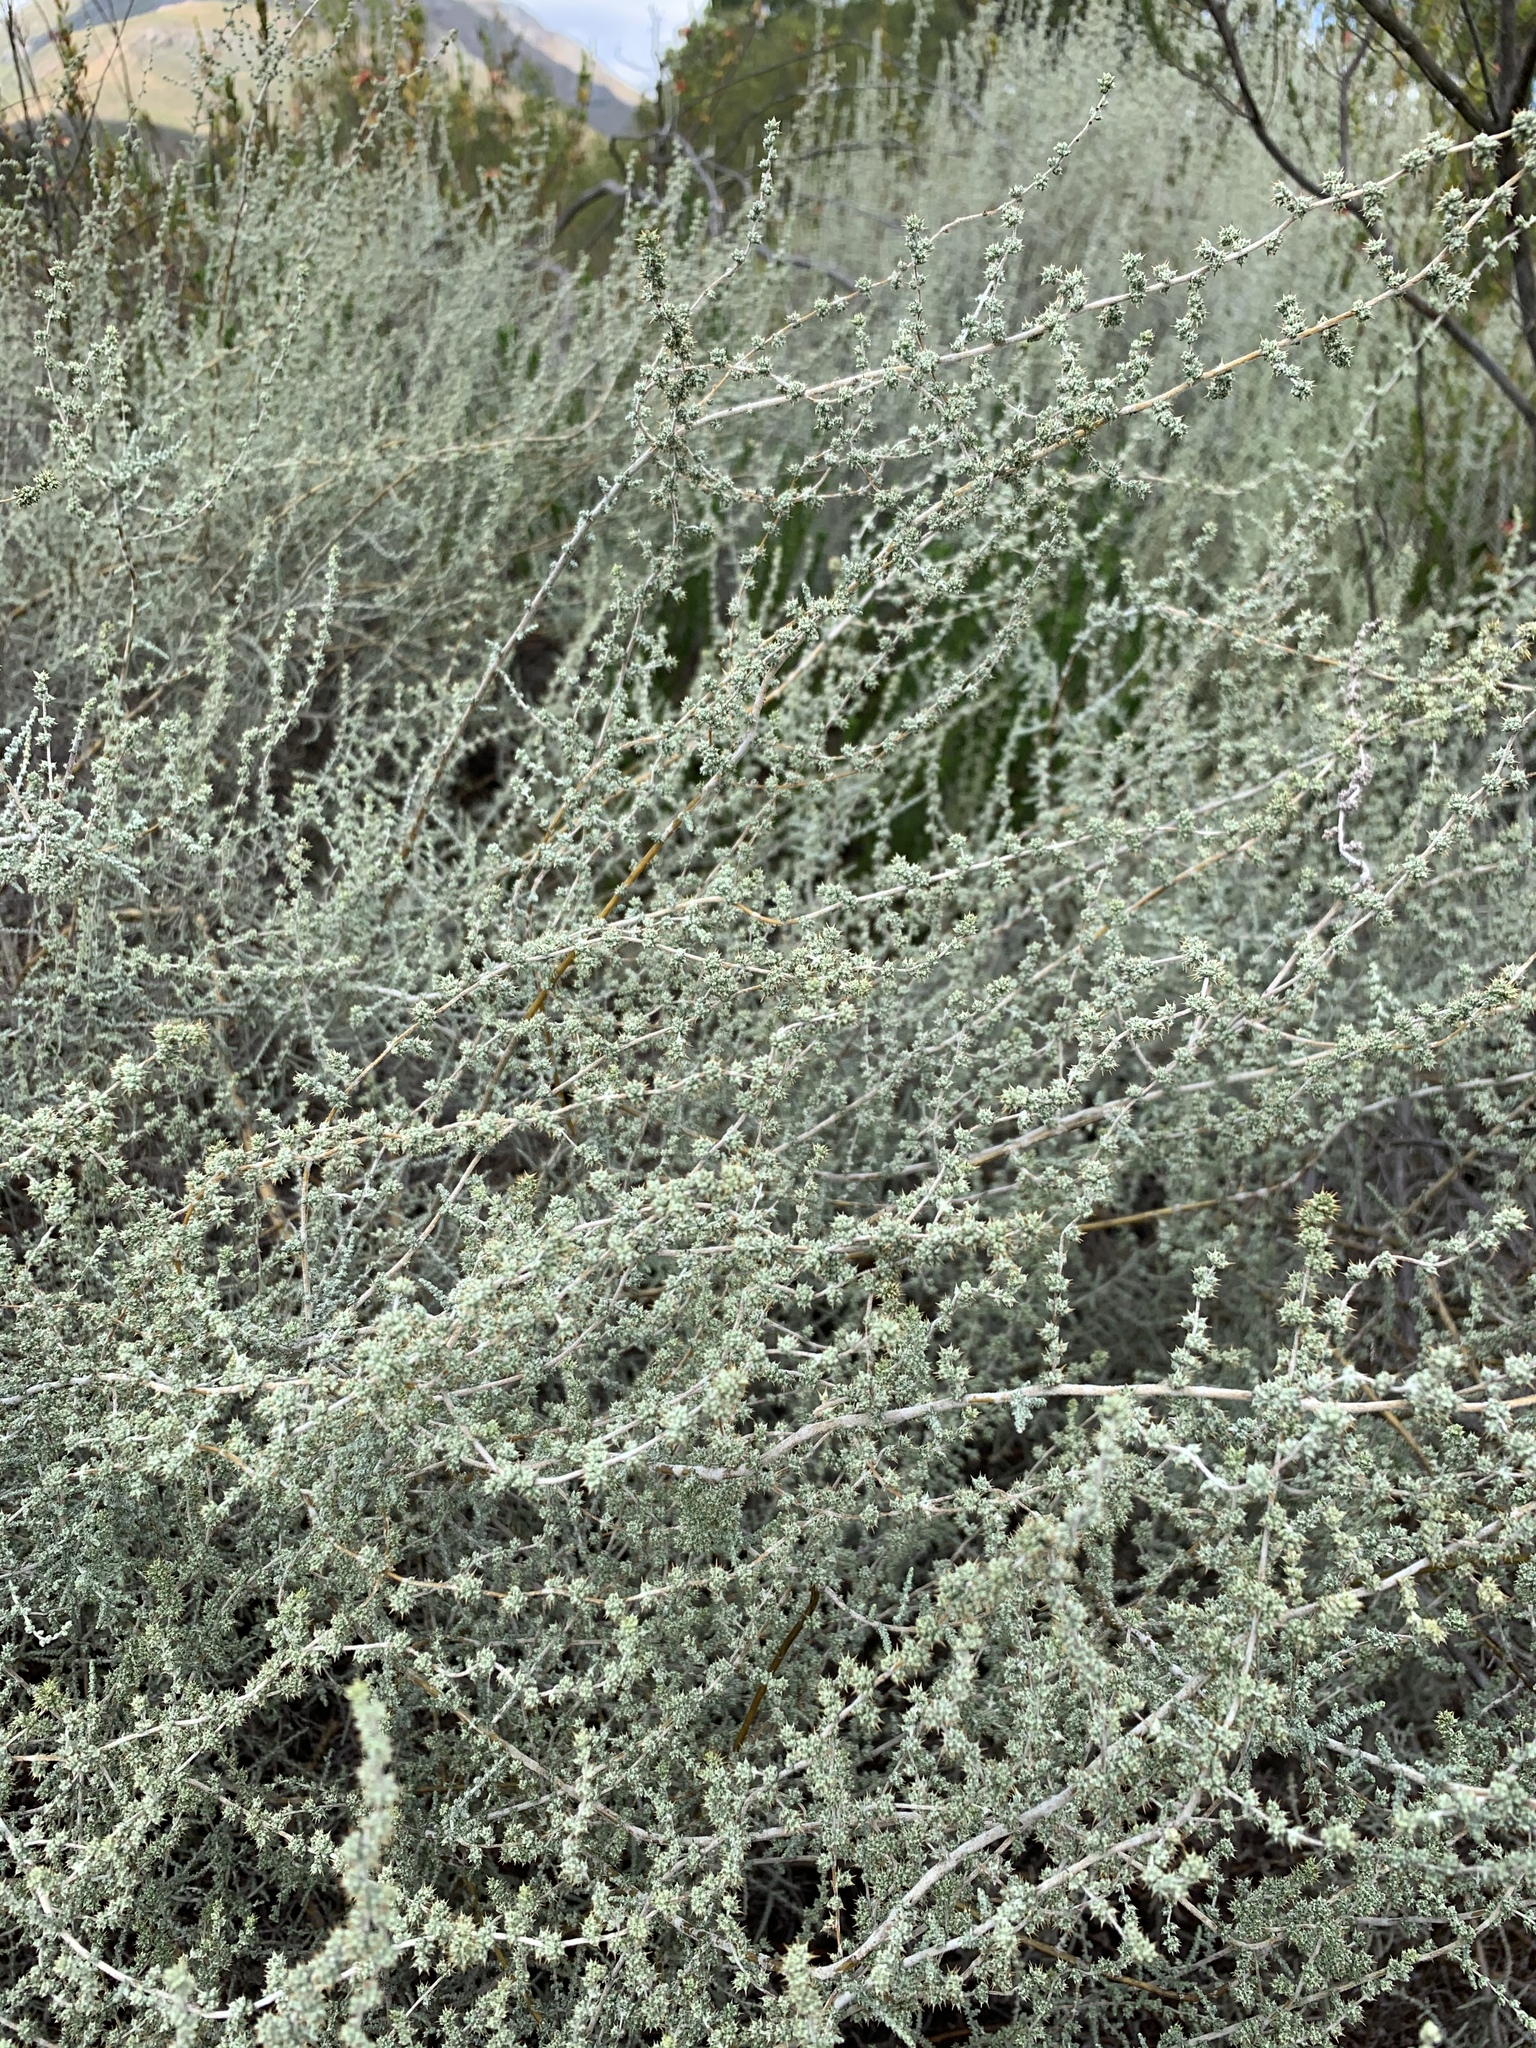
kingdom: Plantae
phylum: Tracheophyta
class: Magnoliopsida
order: Asterales
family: Asteraceae
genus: Seriphium
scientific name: Seriphium plumosum
